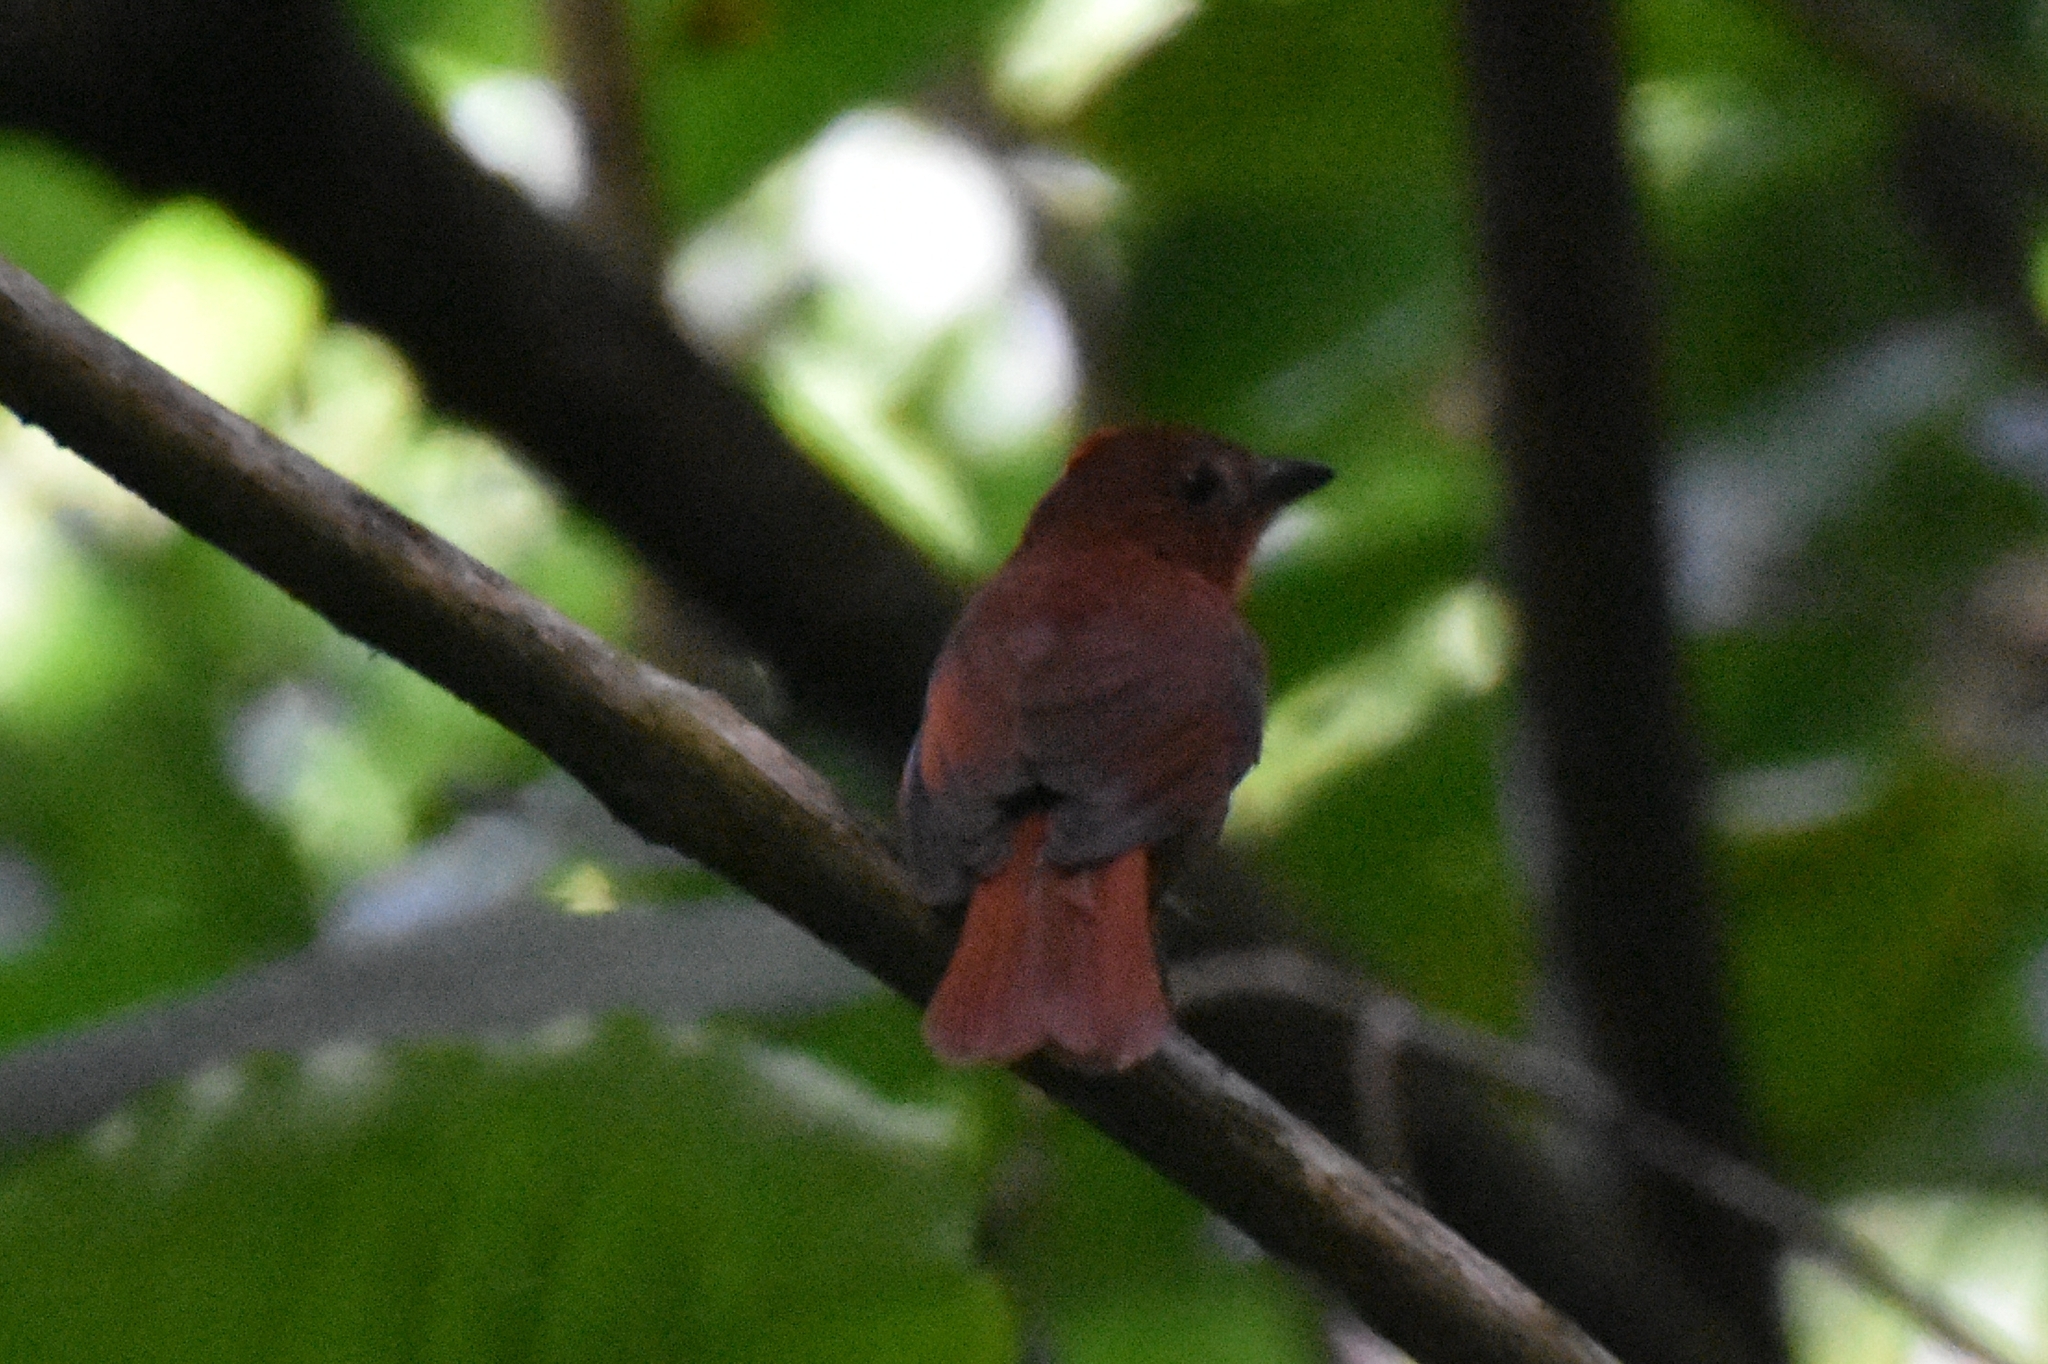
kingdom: Animalia
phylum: Chordata
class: Aves
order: Passeriformes
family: Cardinalidae
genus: Habia
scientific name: Habia rubica
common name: Red-crowned ant-tanager
